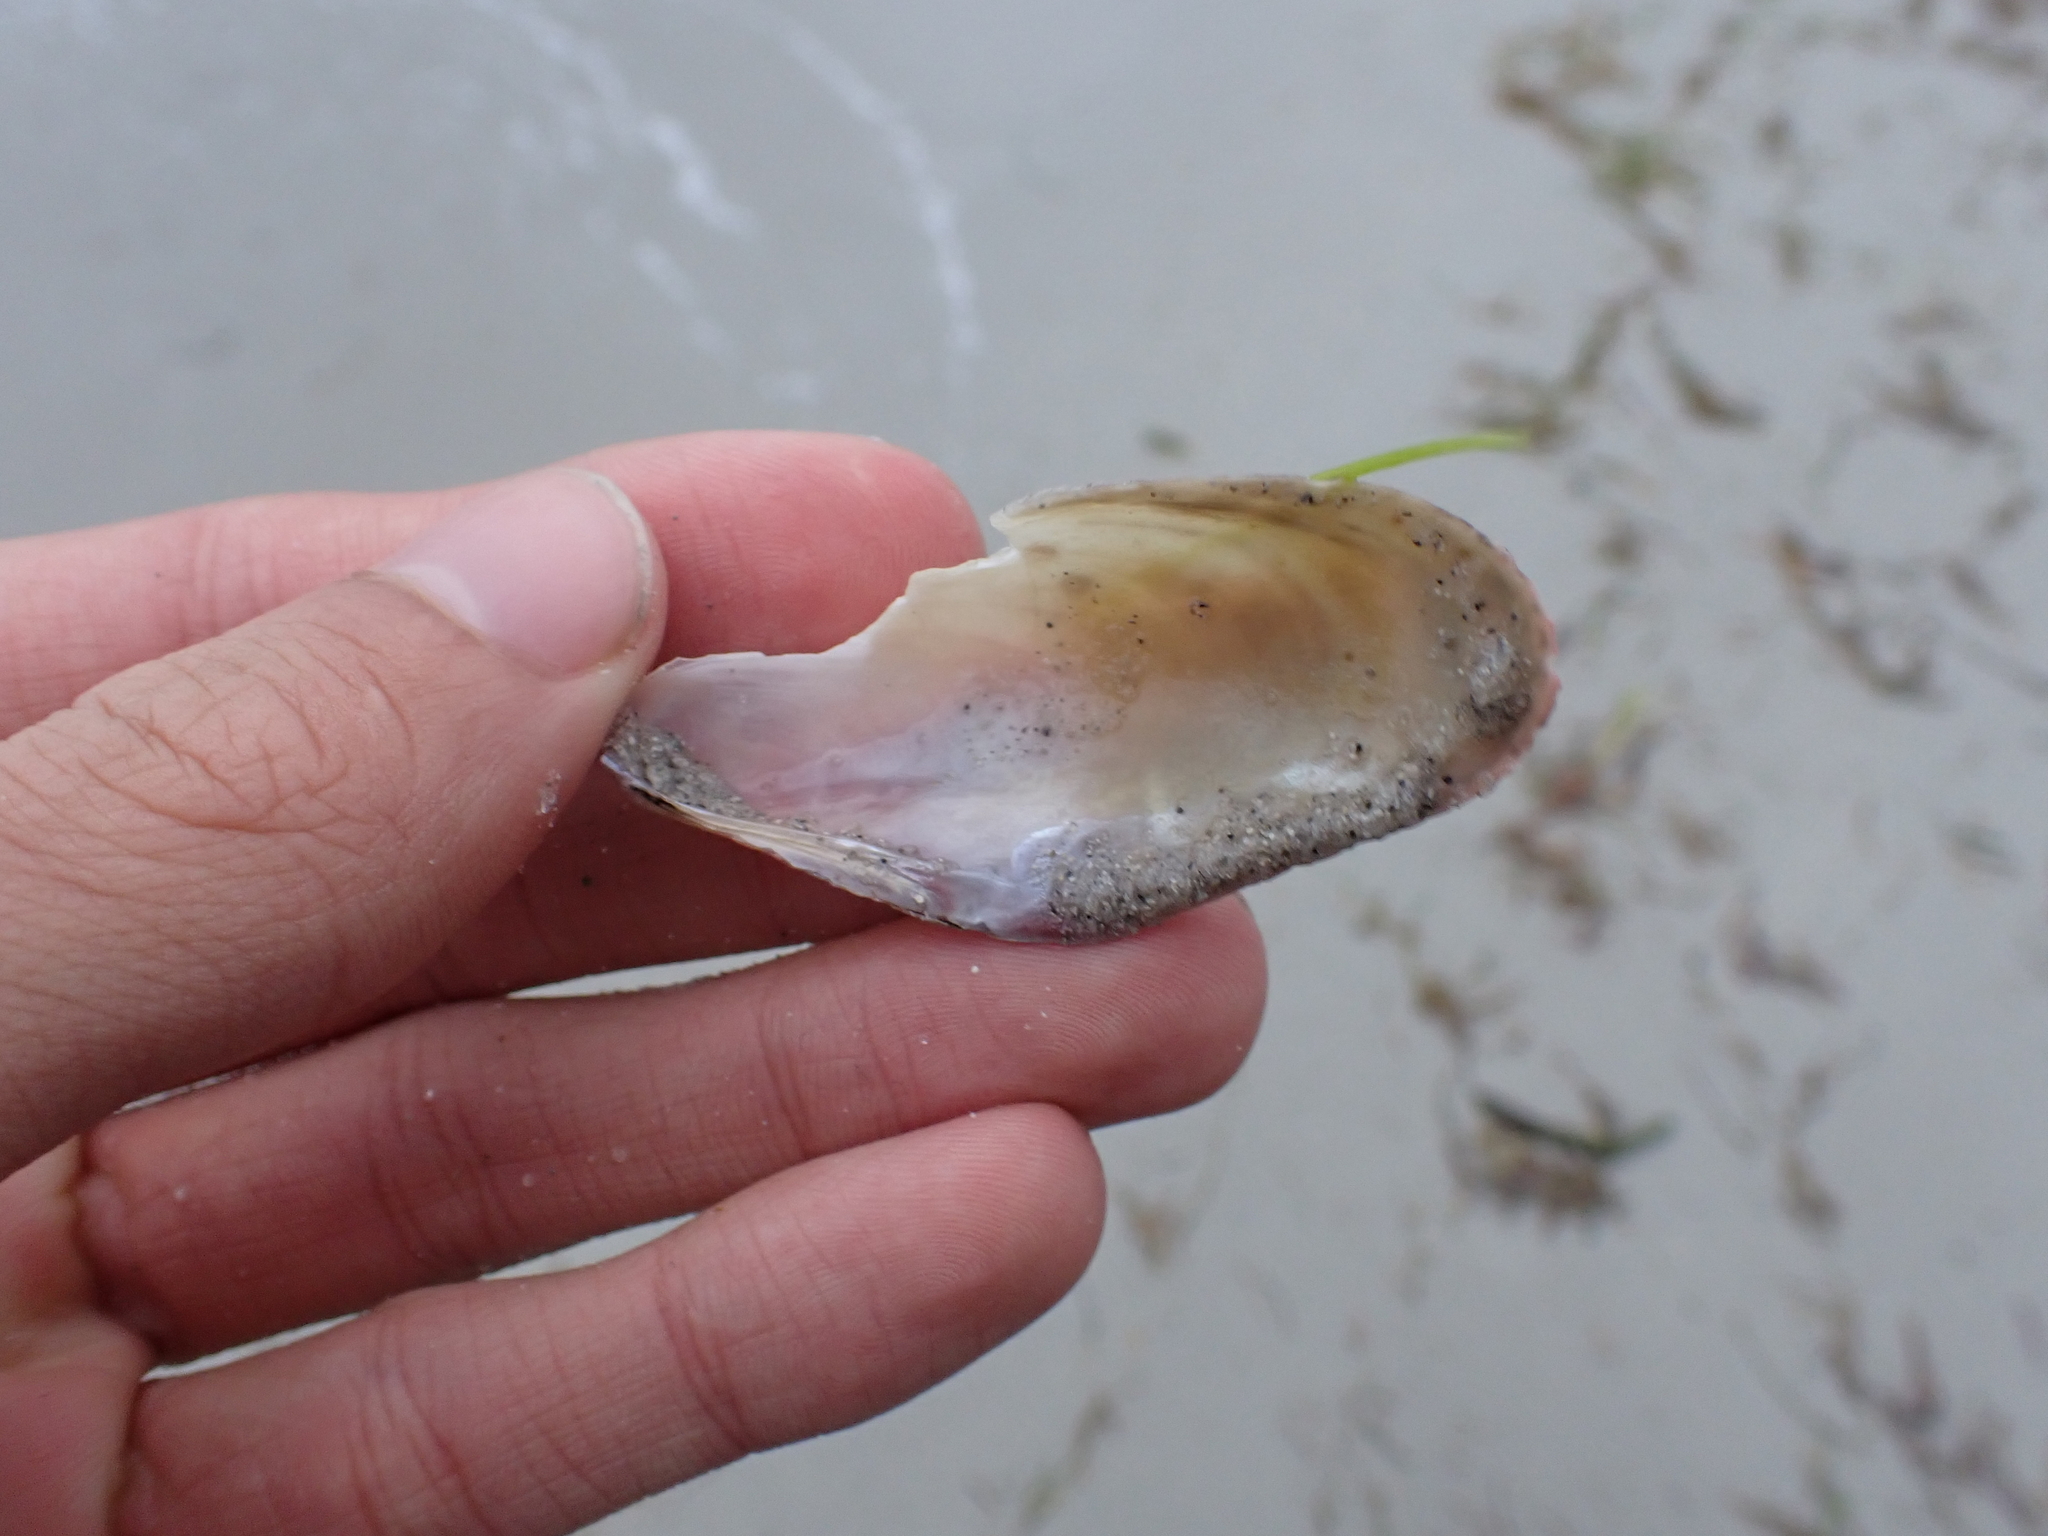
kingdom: Animalia
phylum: Mollusca
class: Bivalvia
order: Mytilida
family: Mytilidae
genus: Modiolus
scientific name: Modiolus americanus
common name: Tulip mussel
